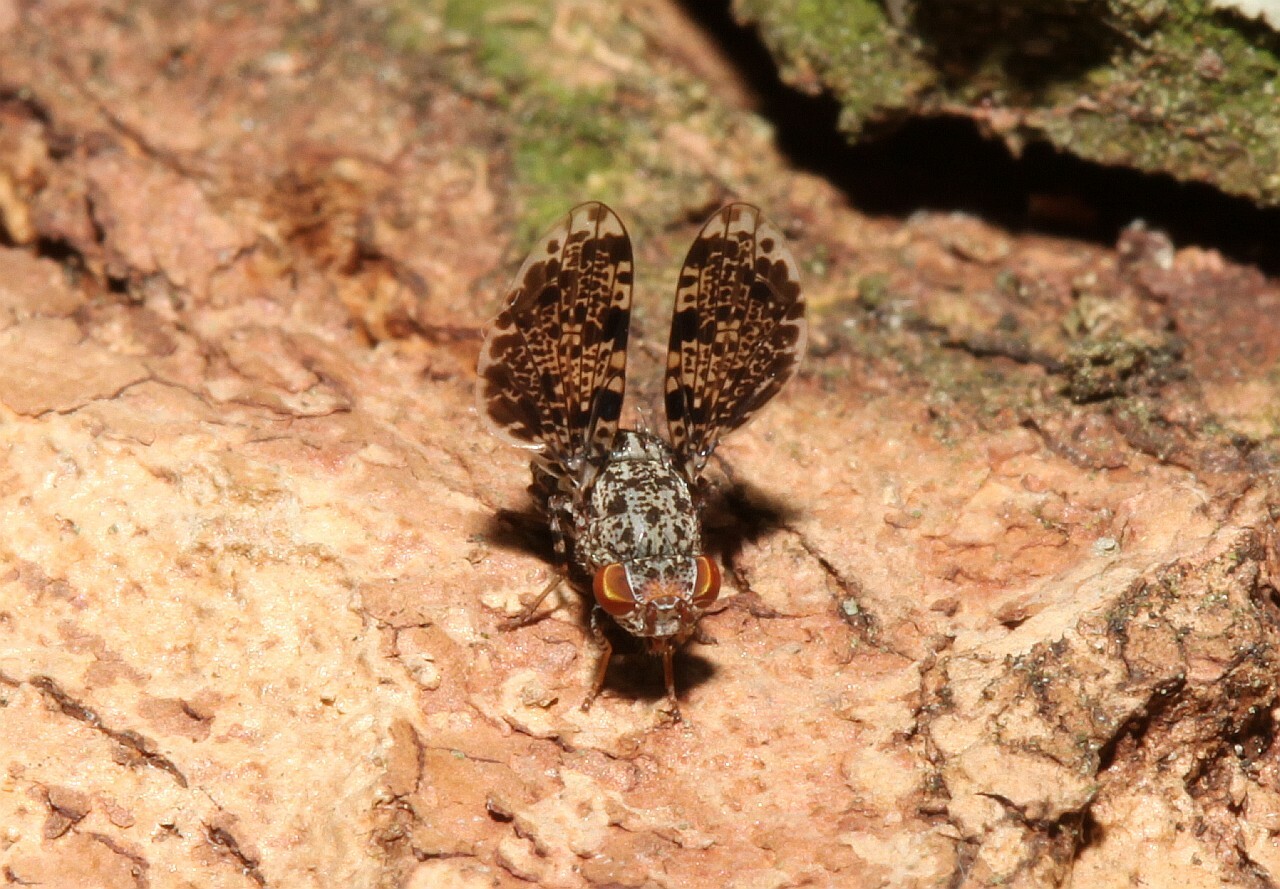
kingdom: Animalia
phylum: Arthropoda
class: Insecta
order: Diptera
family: Ulidiidae
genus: Callopistromyia
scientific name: Callopistromyia annulipes
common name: Peacock fly
